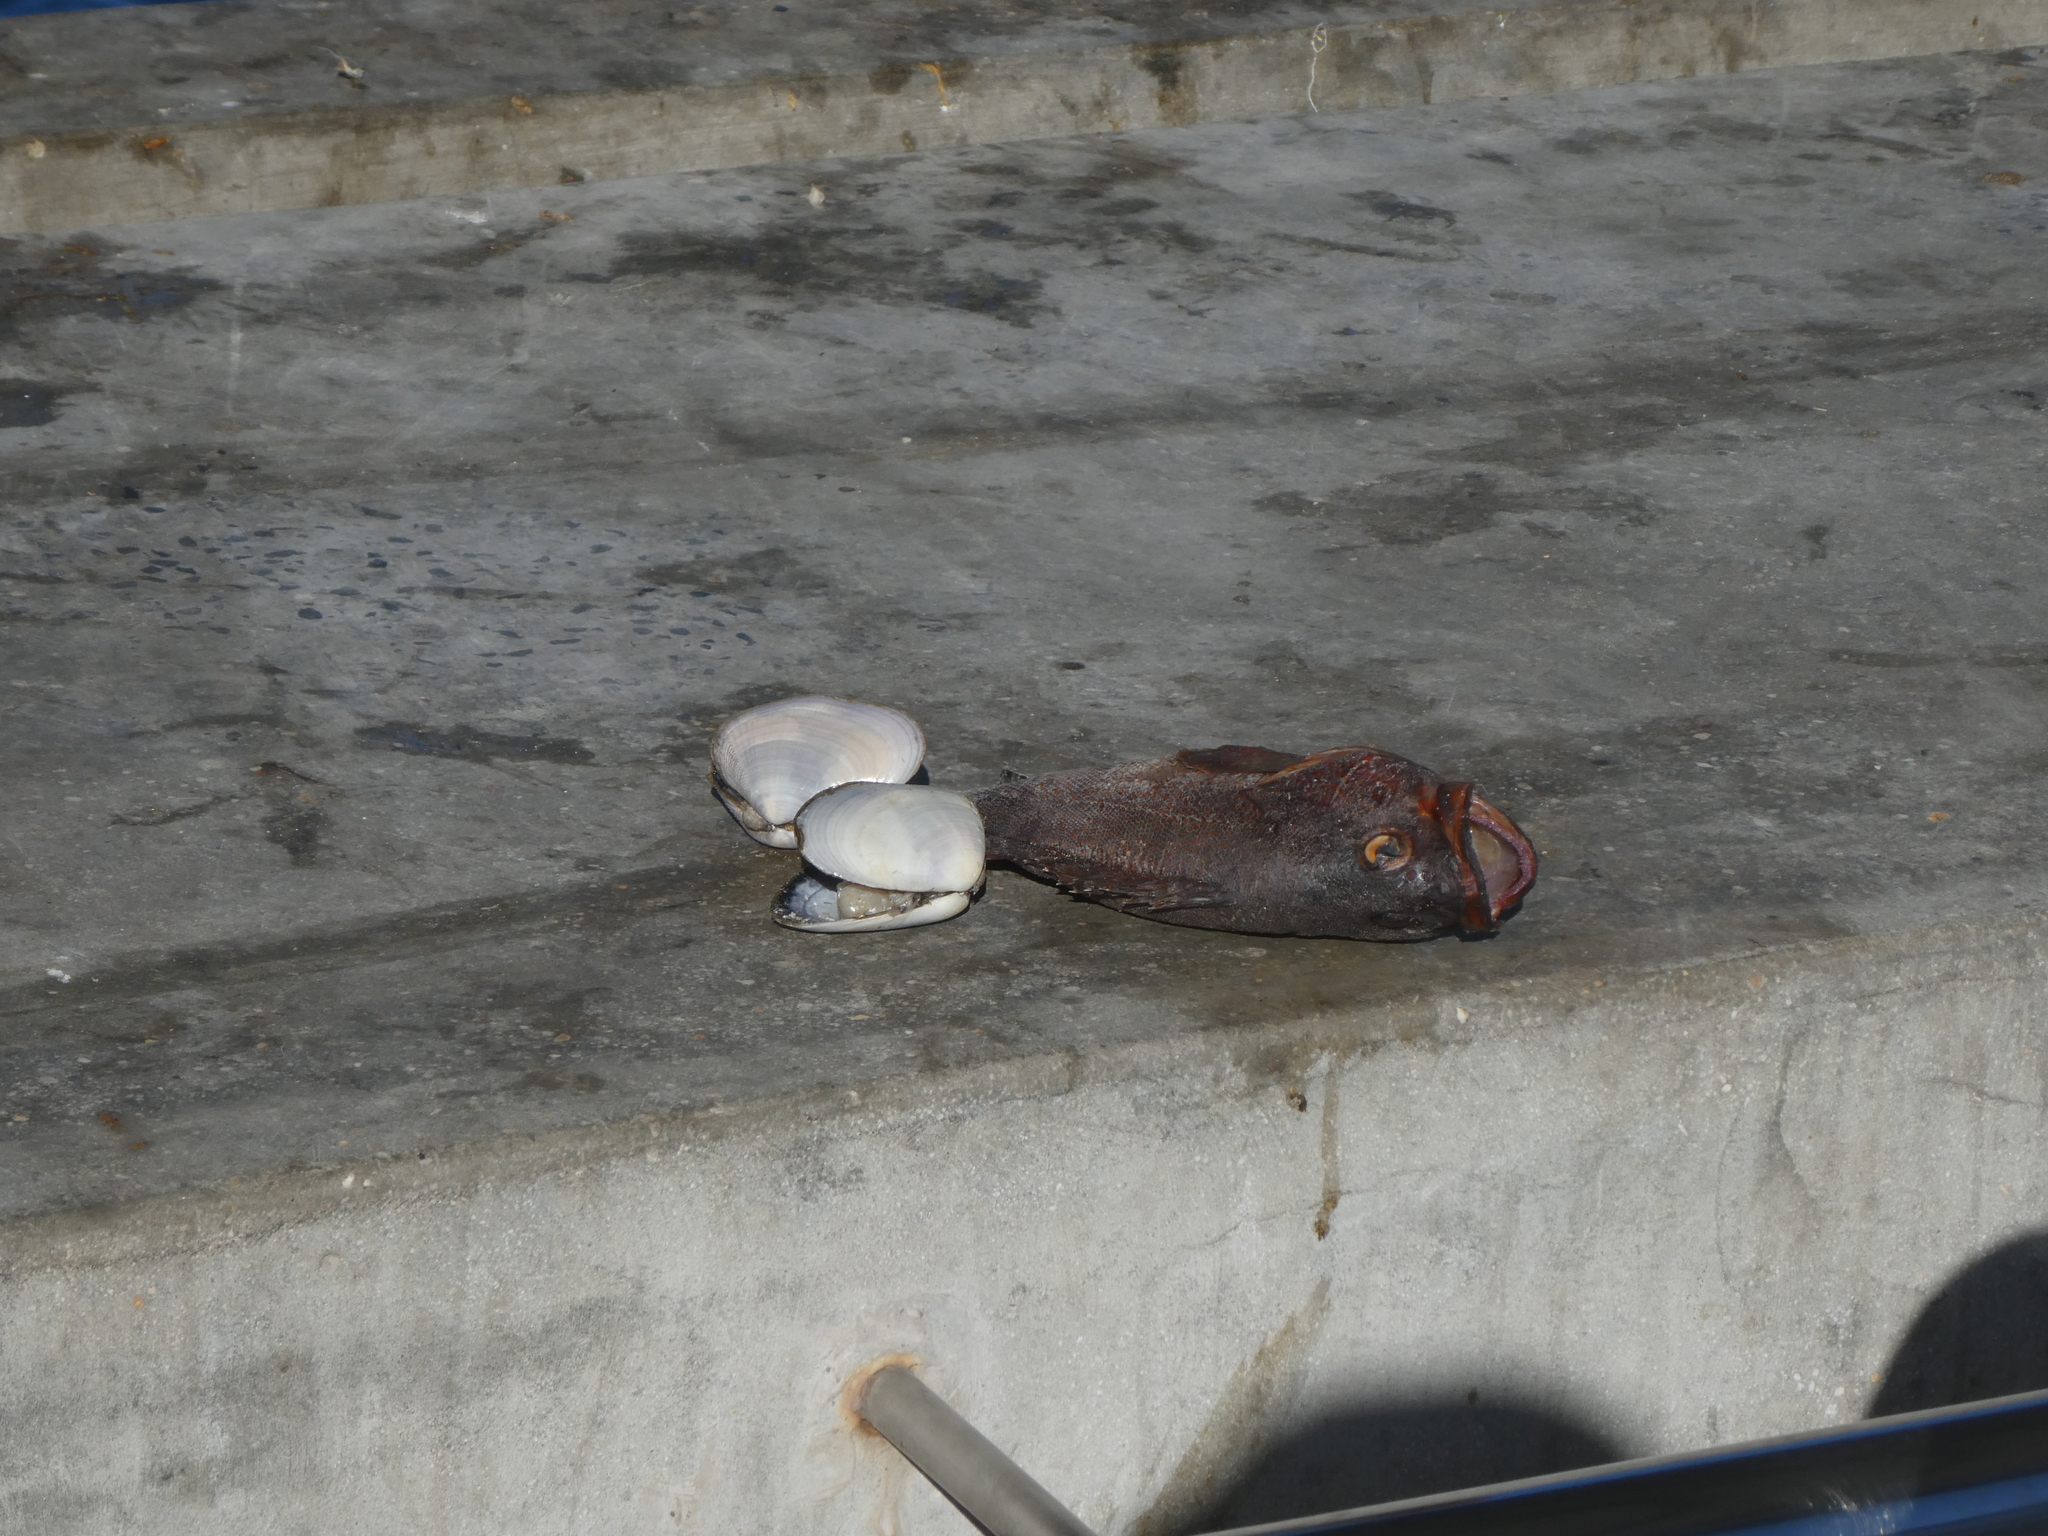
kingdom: Animalia
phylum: Mollusca
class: Bivalvia
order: Cardiida
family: Donacidae
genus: Donax
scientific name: Donax serra
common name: Giant south african wedge clam
